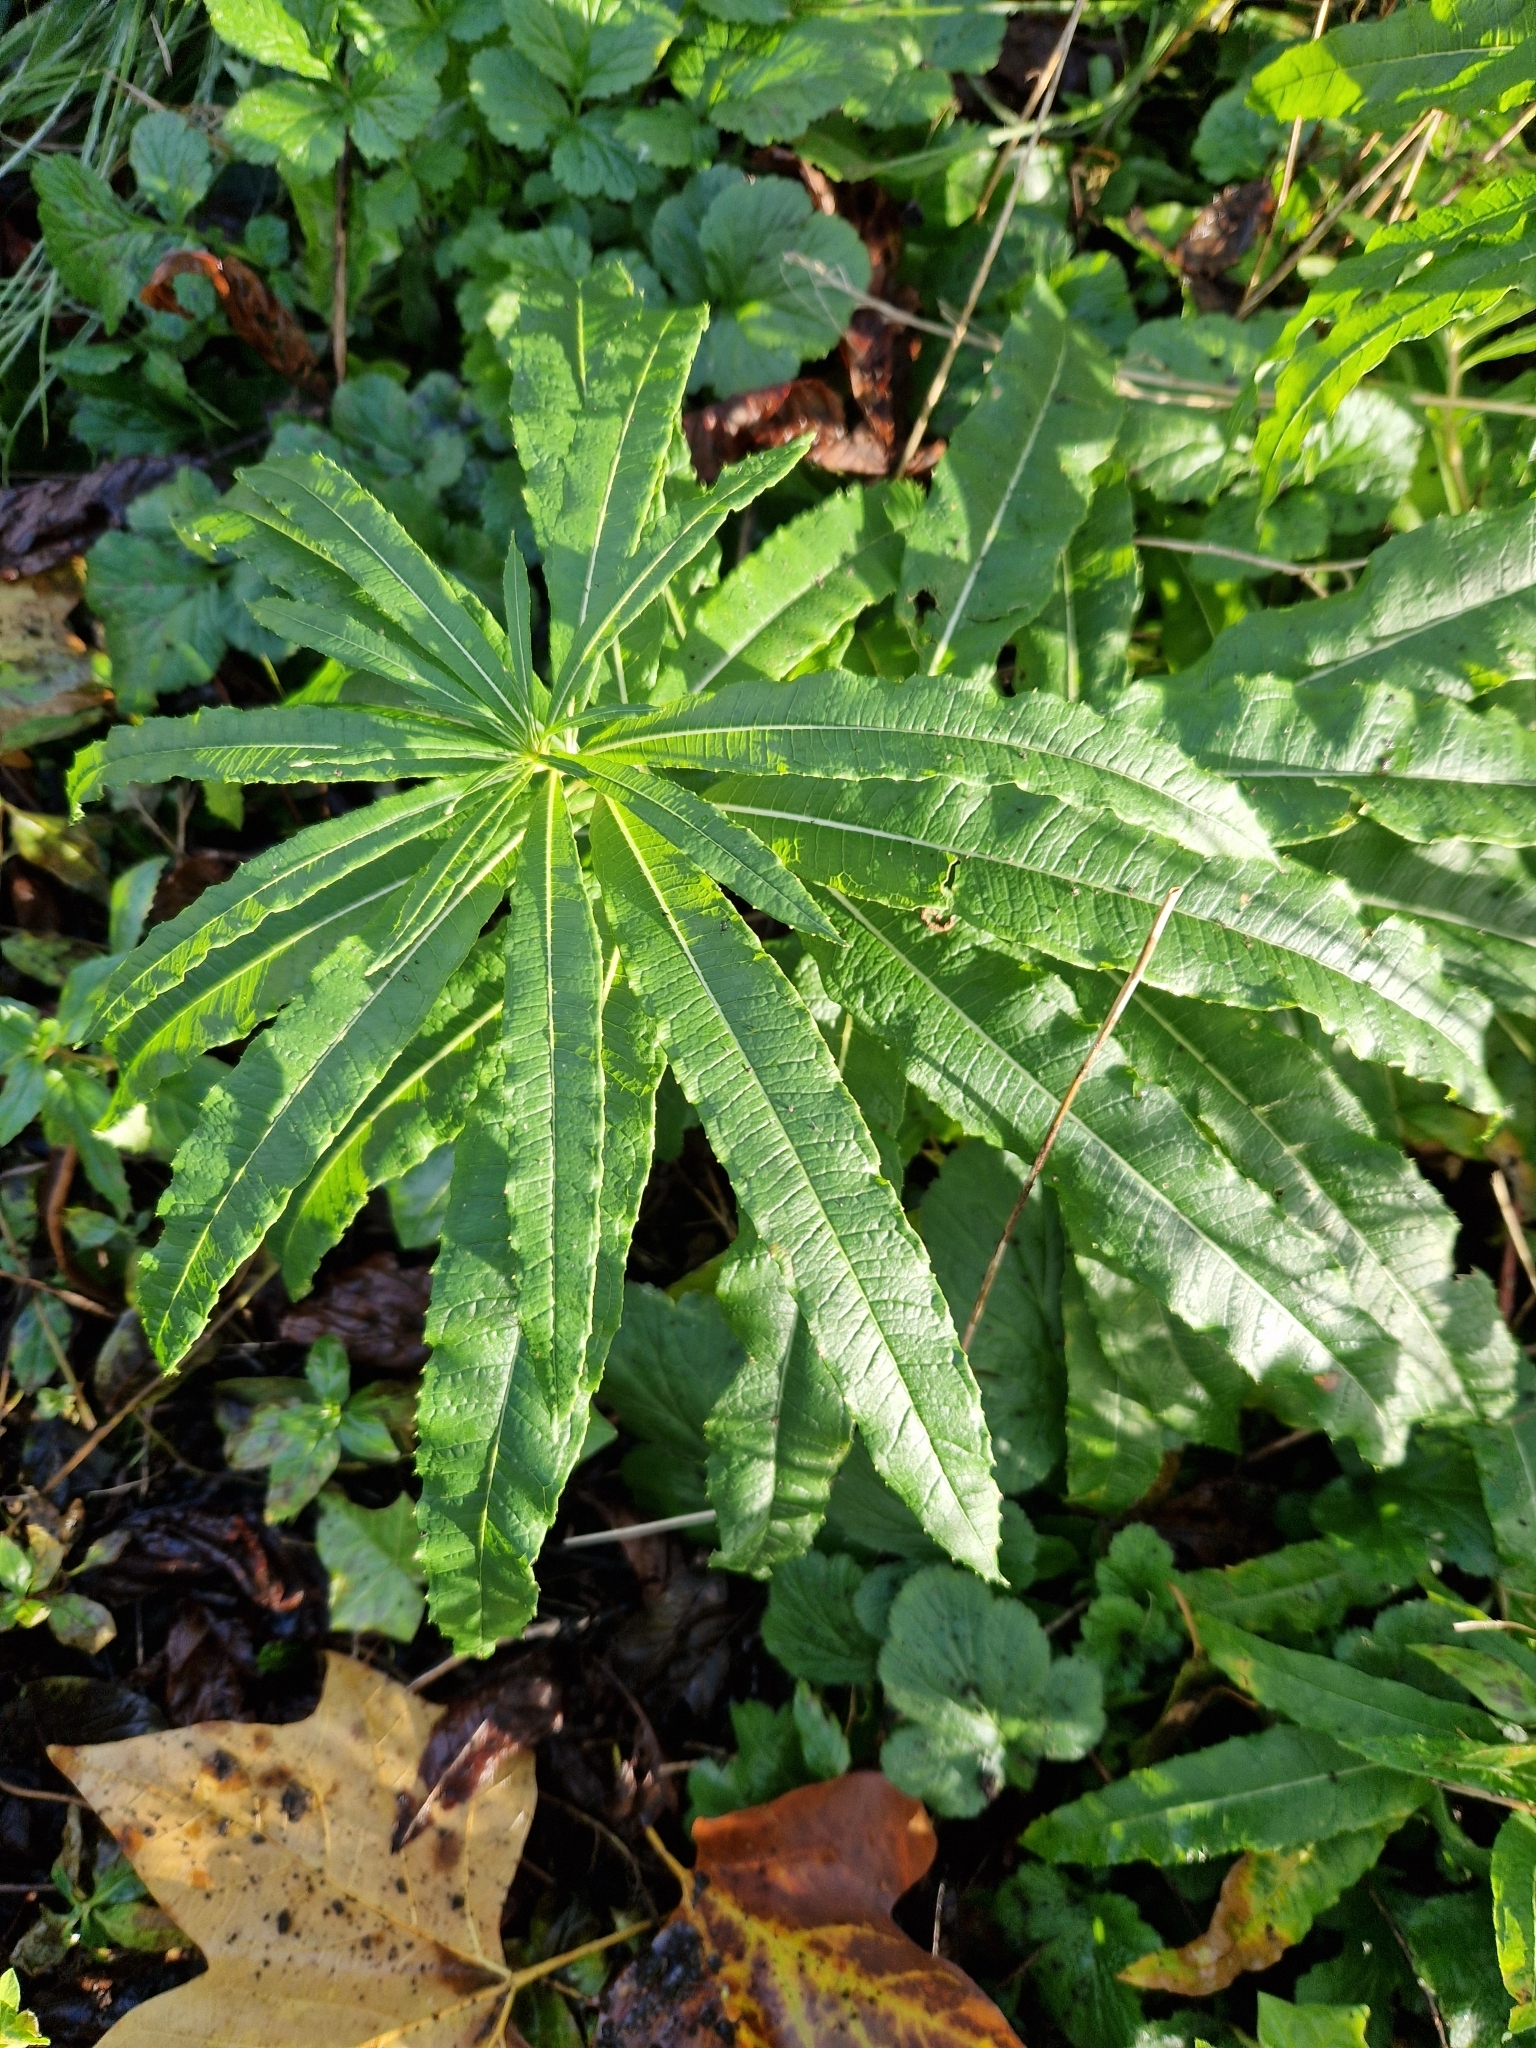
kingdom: Plantae
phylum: Tracheophyta
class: Magnoliopsida
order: Myrtales
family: Onagraceae
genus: Chamaenerion
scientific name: Chamaenerion angustifolium
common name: Fireweed
